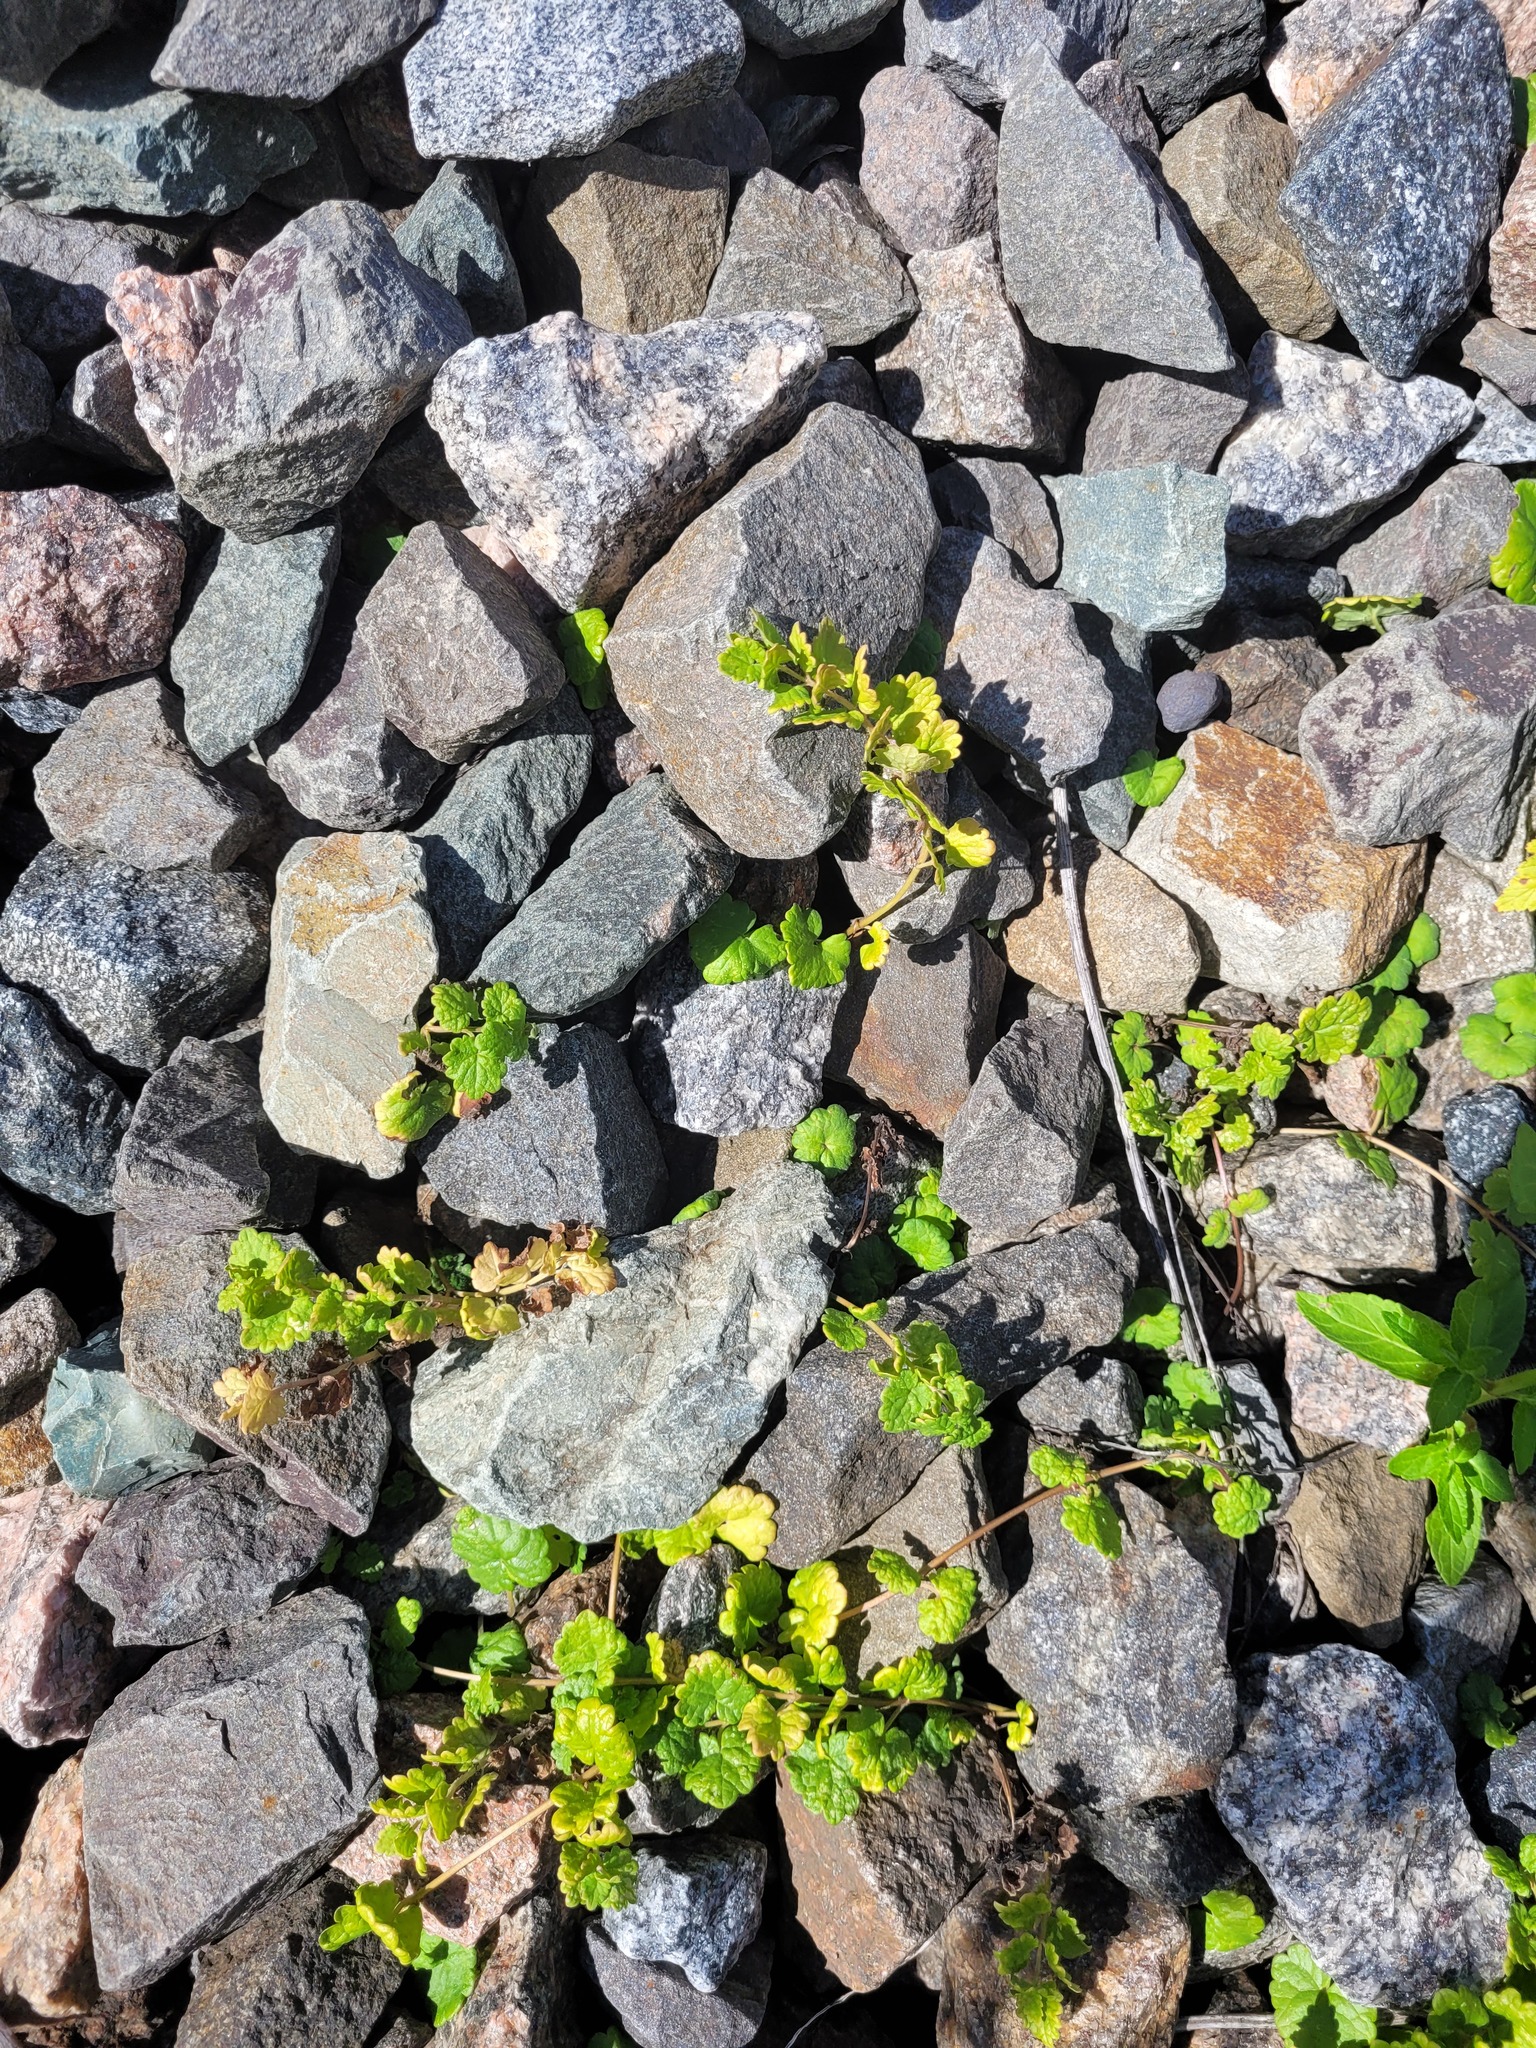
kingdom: Plantae
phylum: Tracheophyta
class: Magnoliopsida
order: Lamiales
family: Lamiaceae
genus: Glechoma
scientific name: Glechoma hederacea
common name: Ground ivy
